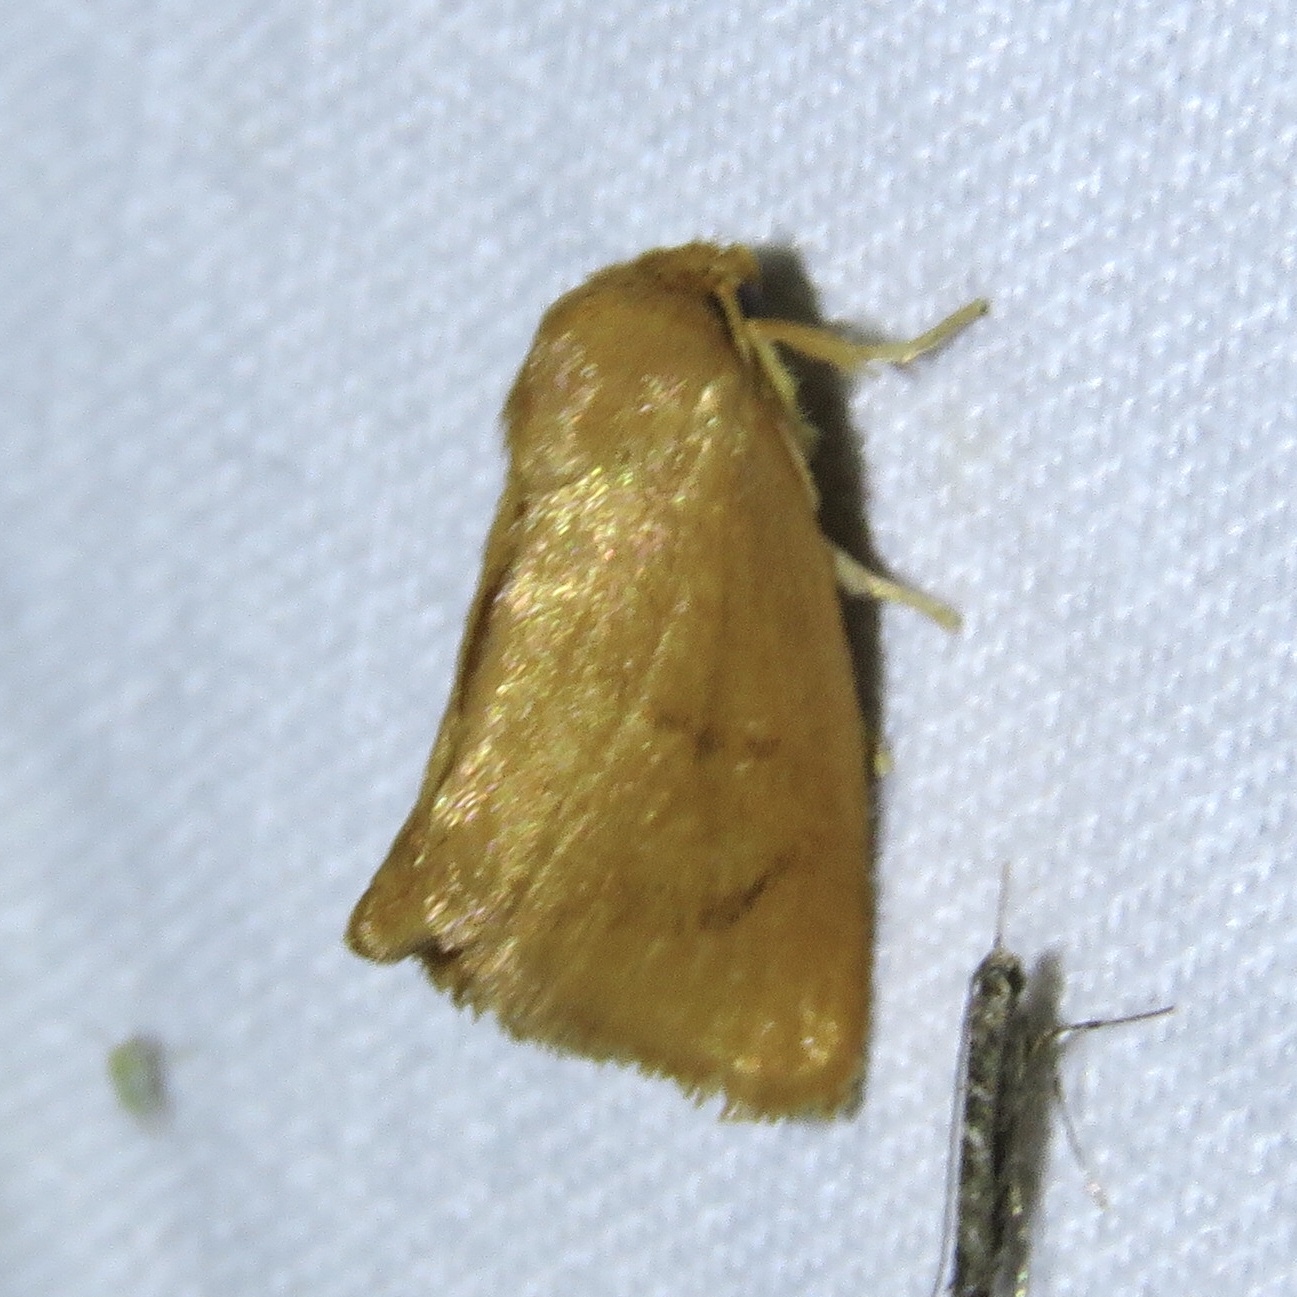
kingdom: Animalia
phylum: Arthropoda
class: Insecta
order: Lepidoptera
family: Limacodidae
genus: Tortricidia
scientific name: Tortricidia flexuosa
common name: Abbreviated button slug moth
